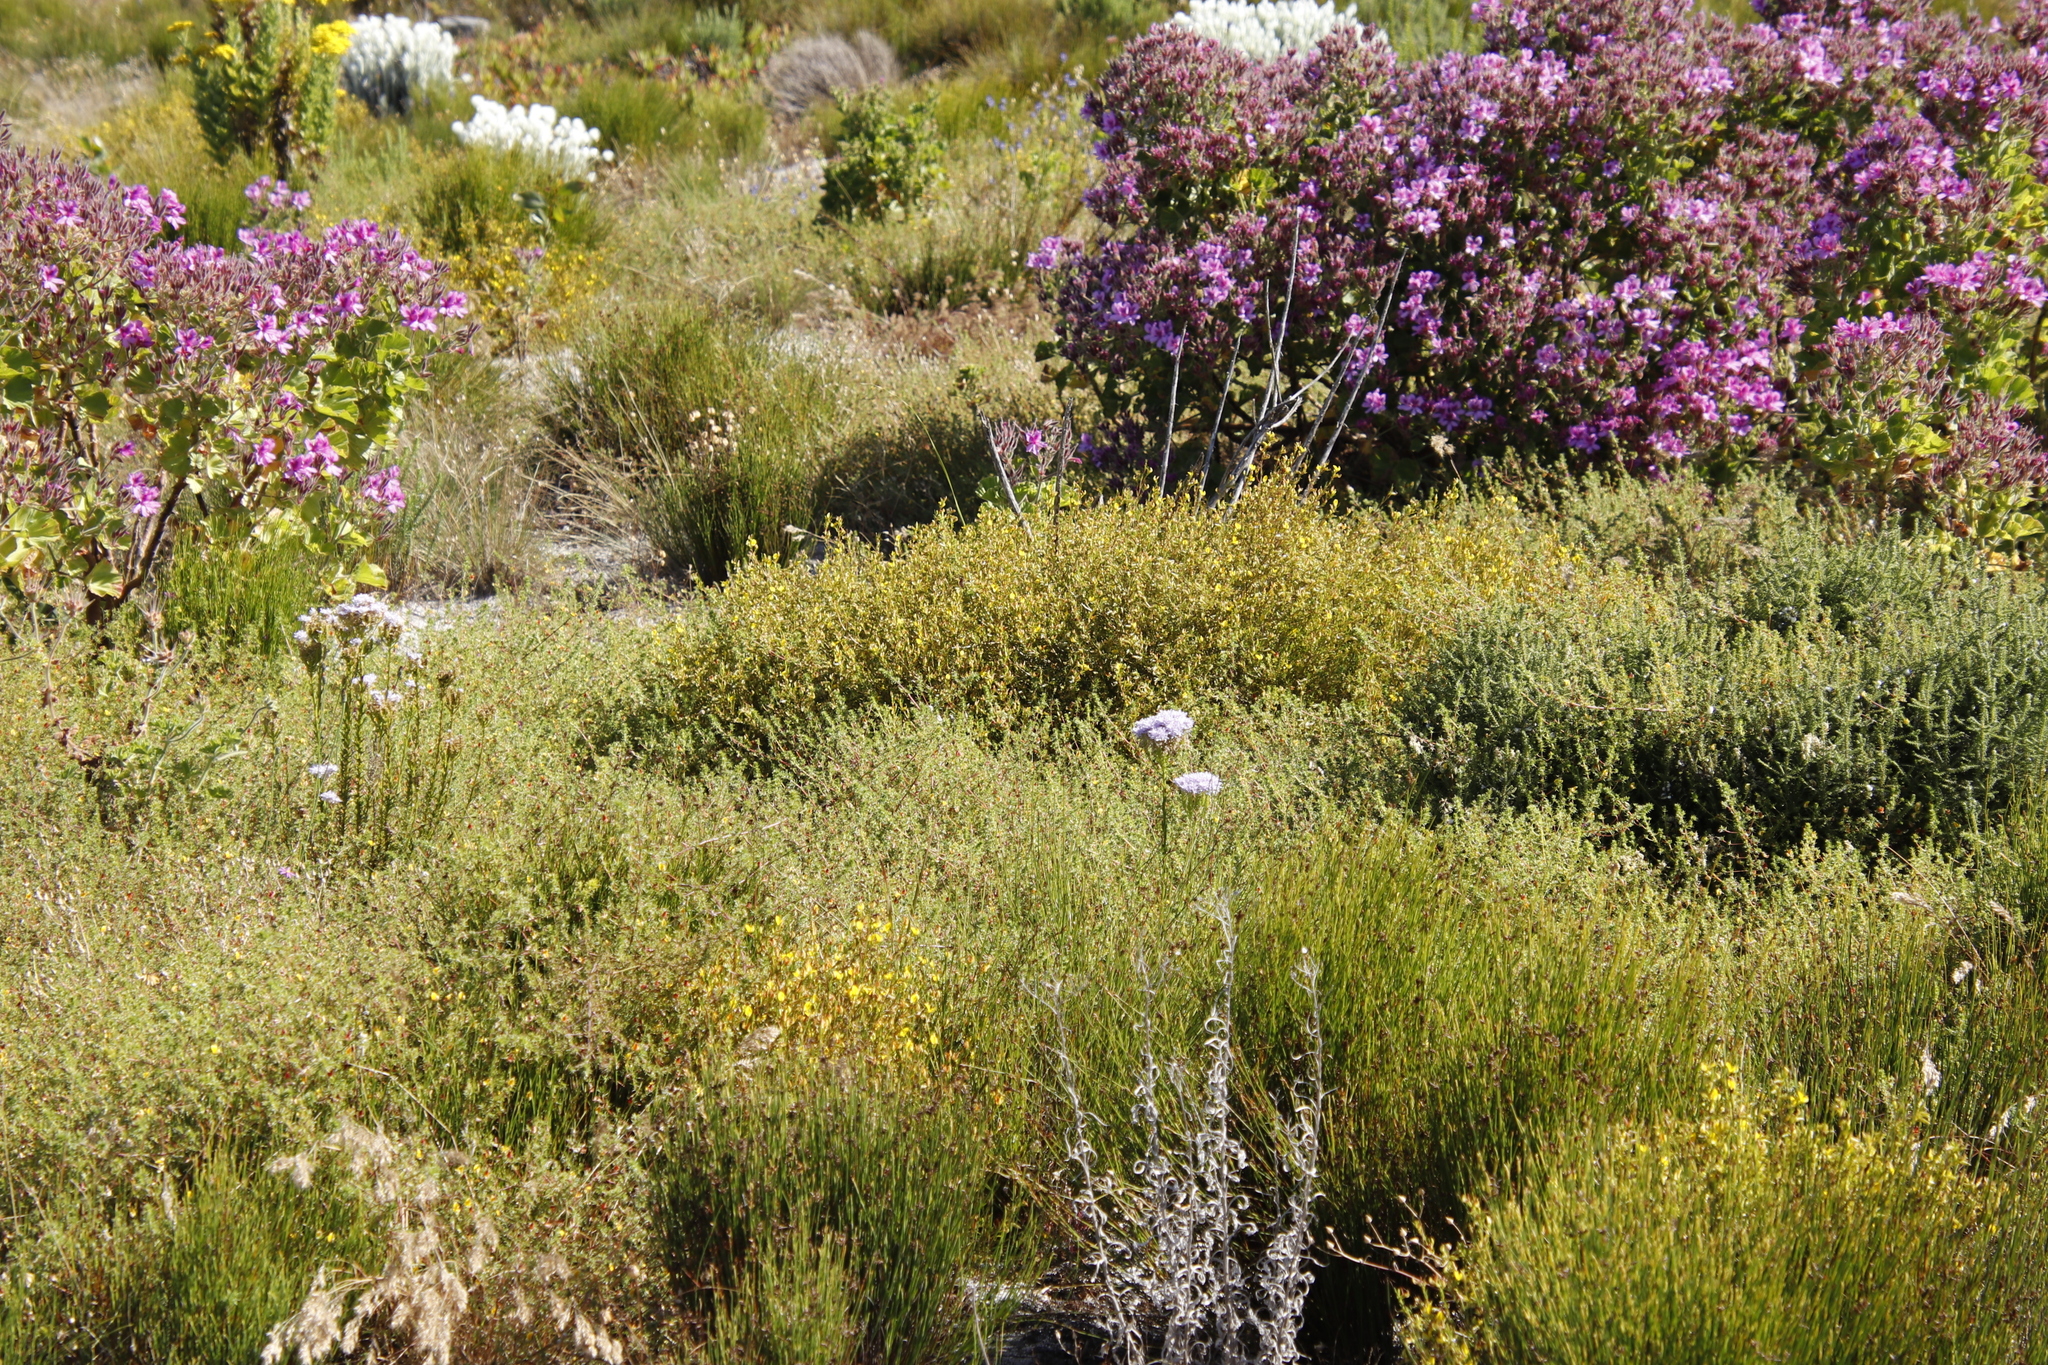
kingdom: Plantae
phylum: Tracheophyta
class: Liliopsida
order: Poales
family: Restionaceae
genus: Restio
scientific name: Restio capensis
